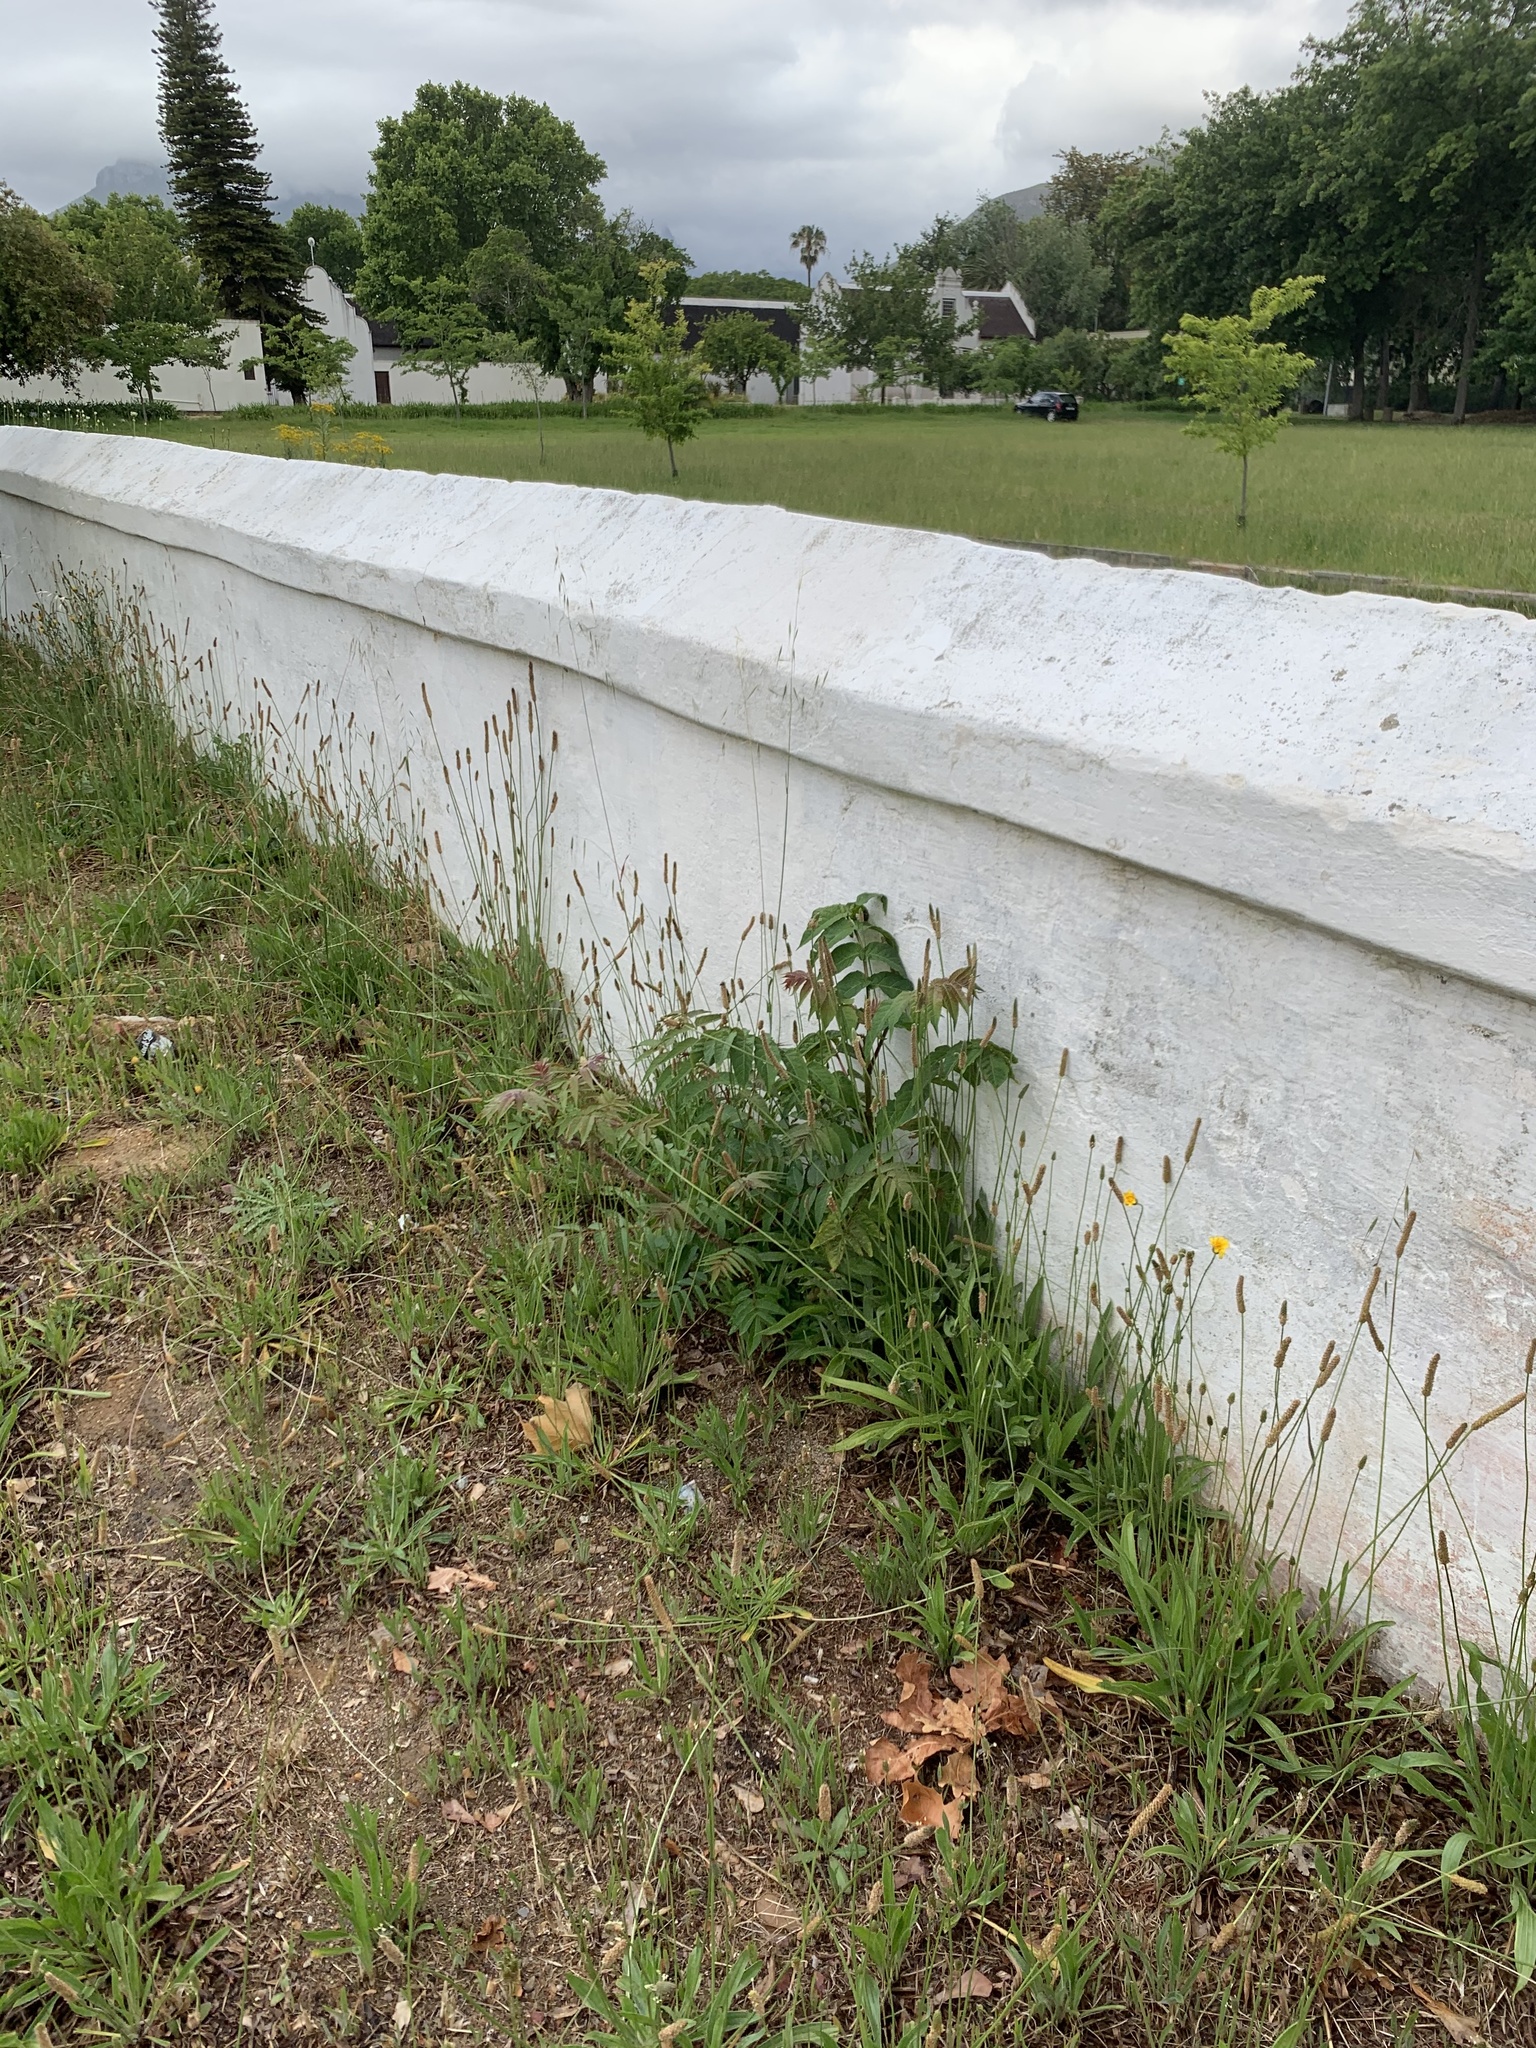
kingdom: Plantae
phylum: Tracheophyta
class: Magnoliopsida
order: Sapindales
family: Simaroubaceae
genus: Ailanthus
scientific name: Ailanthus altissima
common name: Tree-of-heaven
